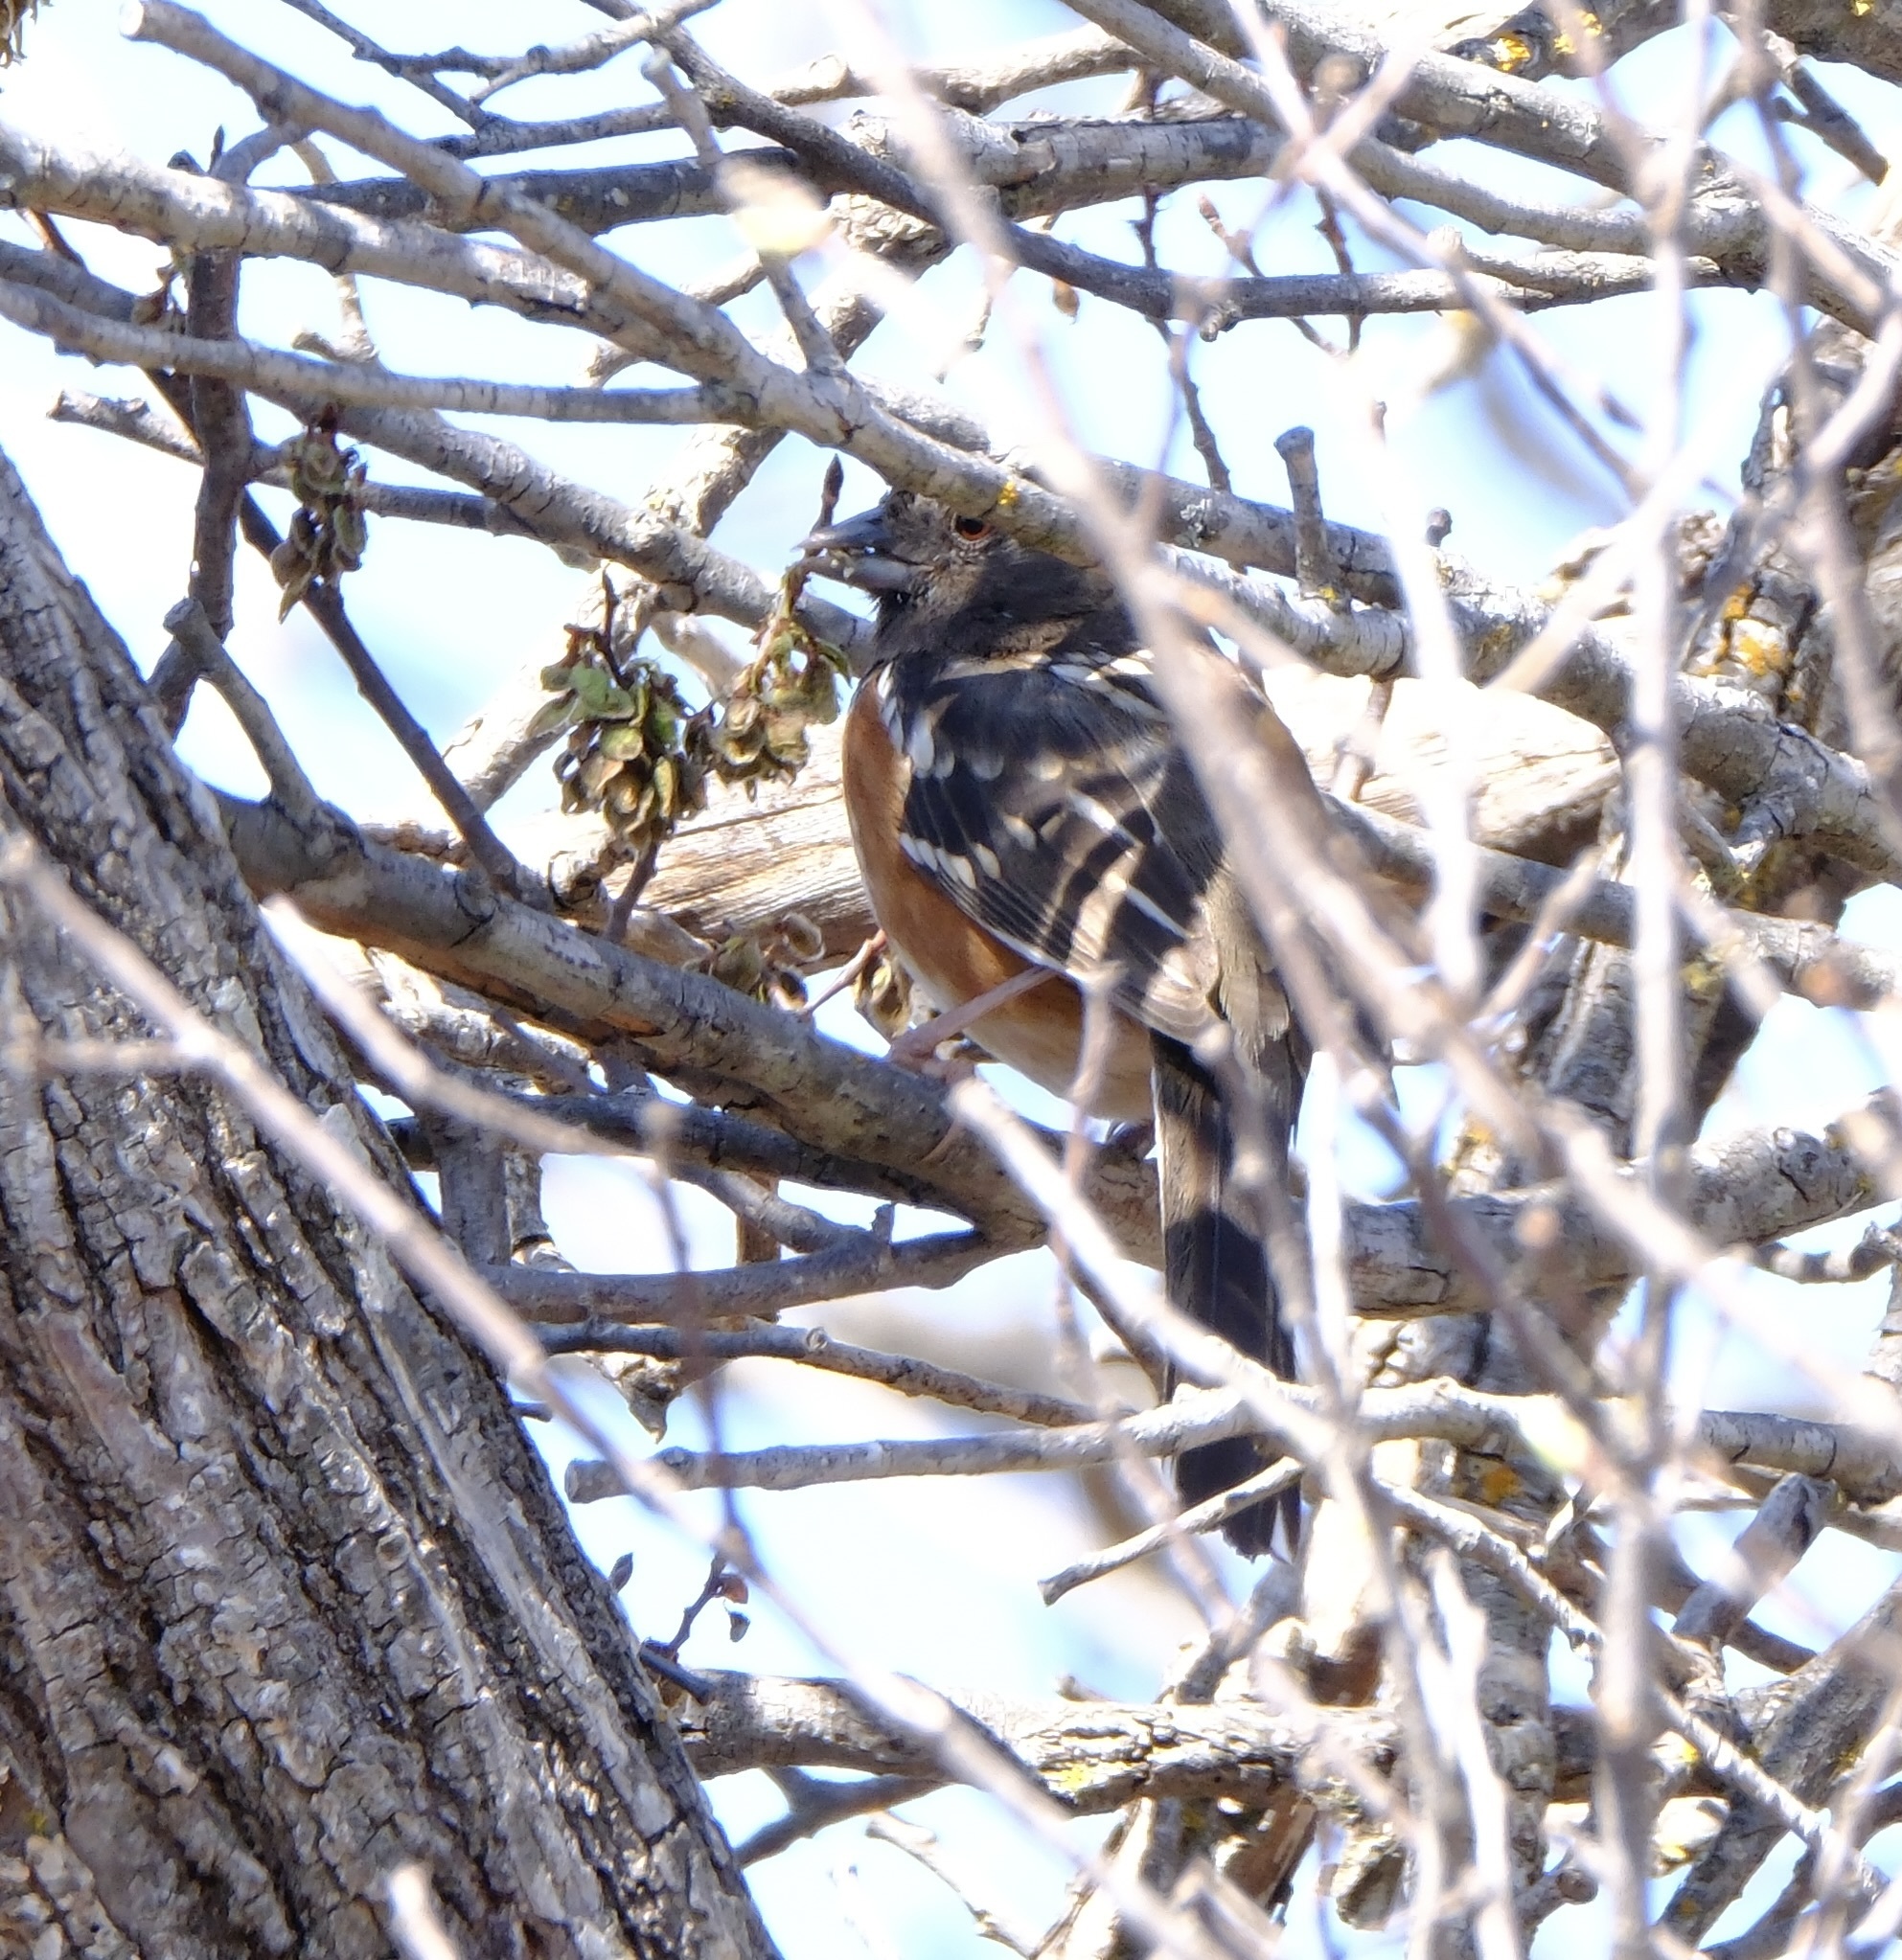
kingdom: Animalia
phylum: Chordata
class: Aves
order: Passeriformes
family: Passerellidae
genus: Pipilo
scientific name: Pipilo maculatus
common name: Spotted towhee
